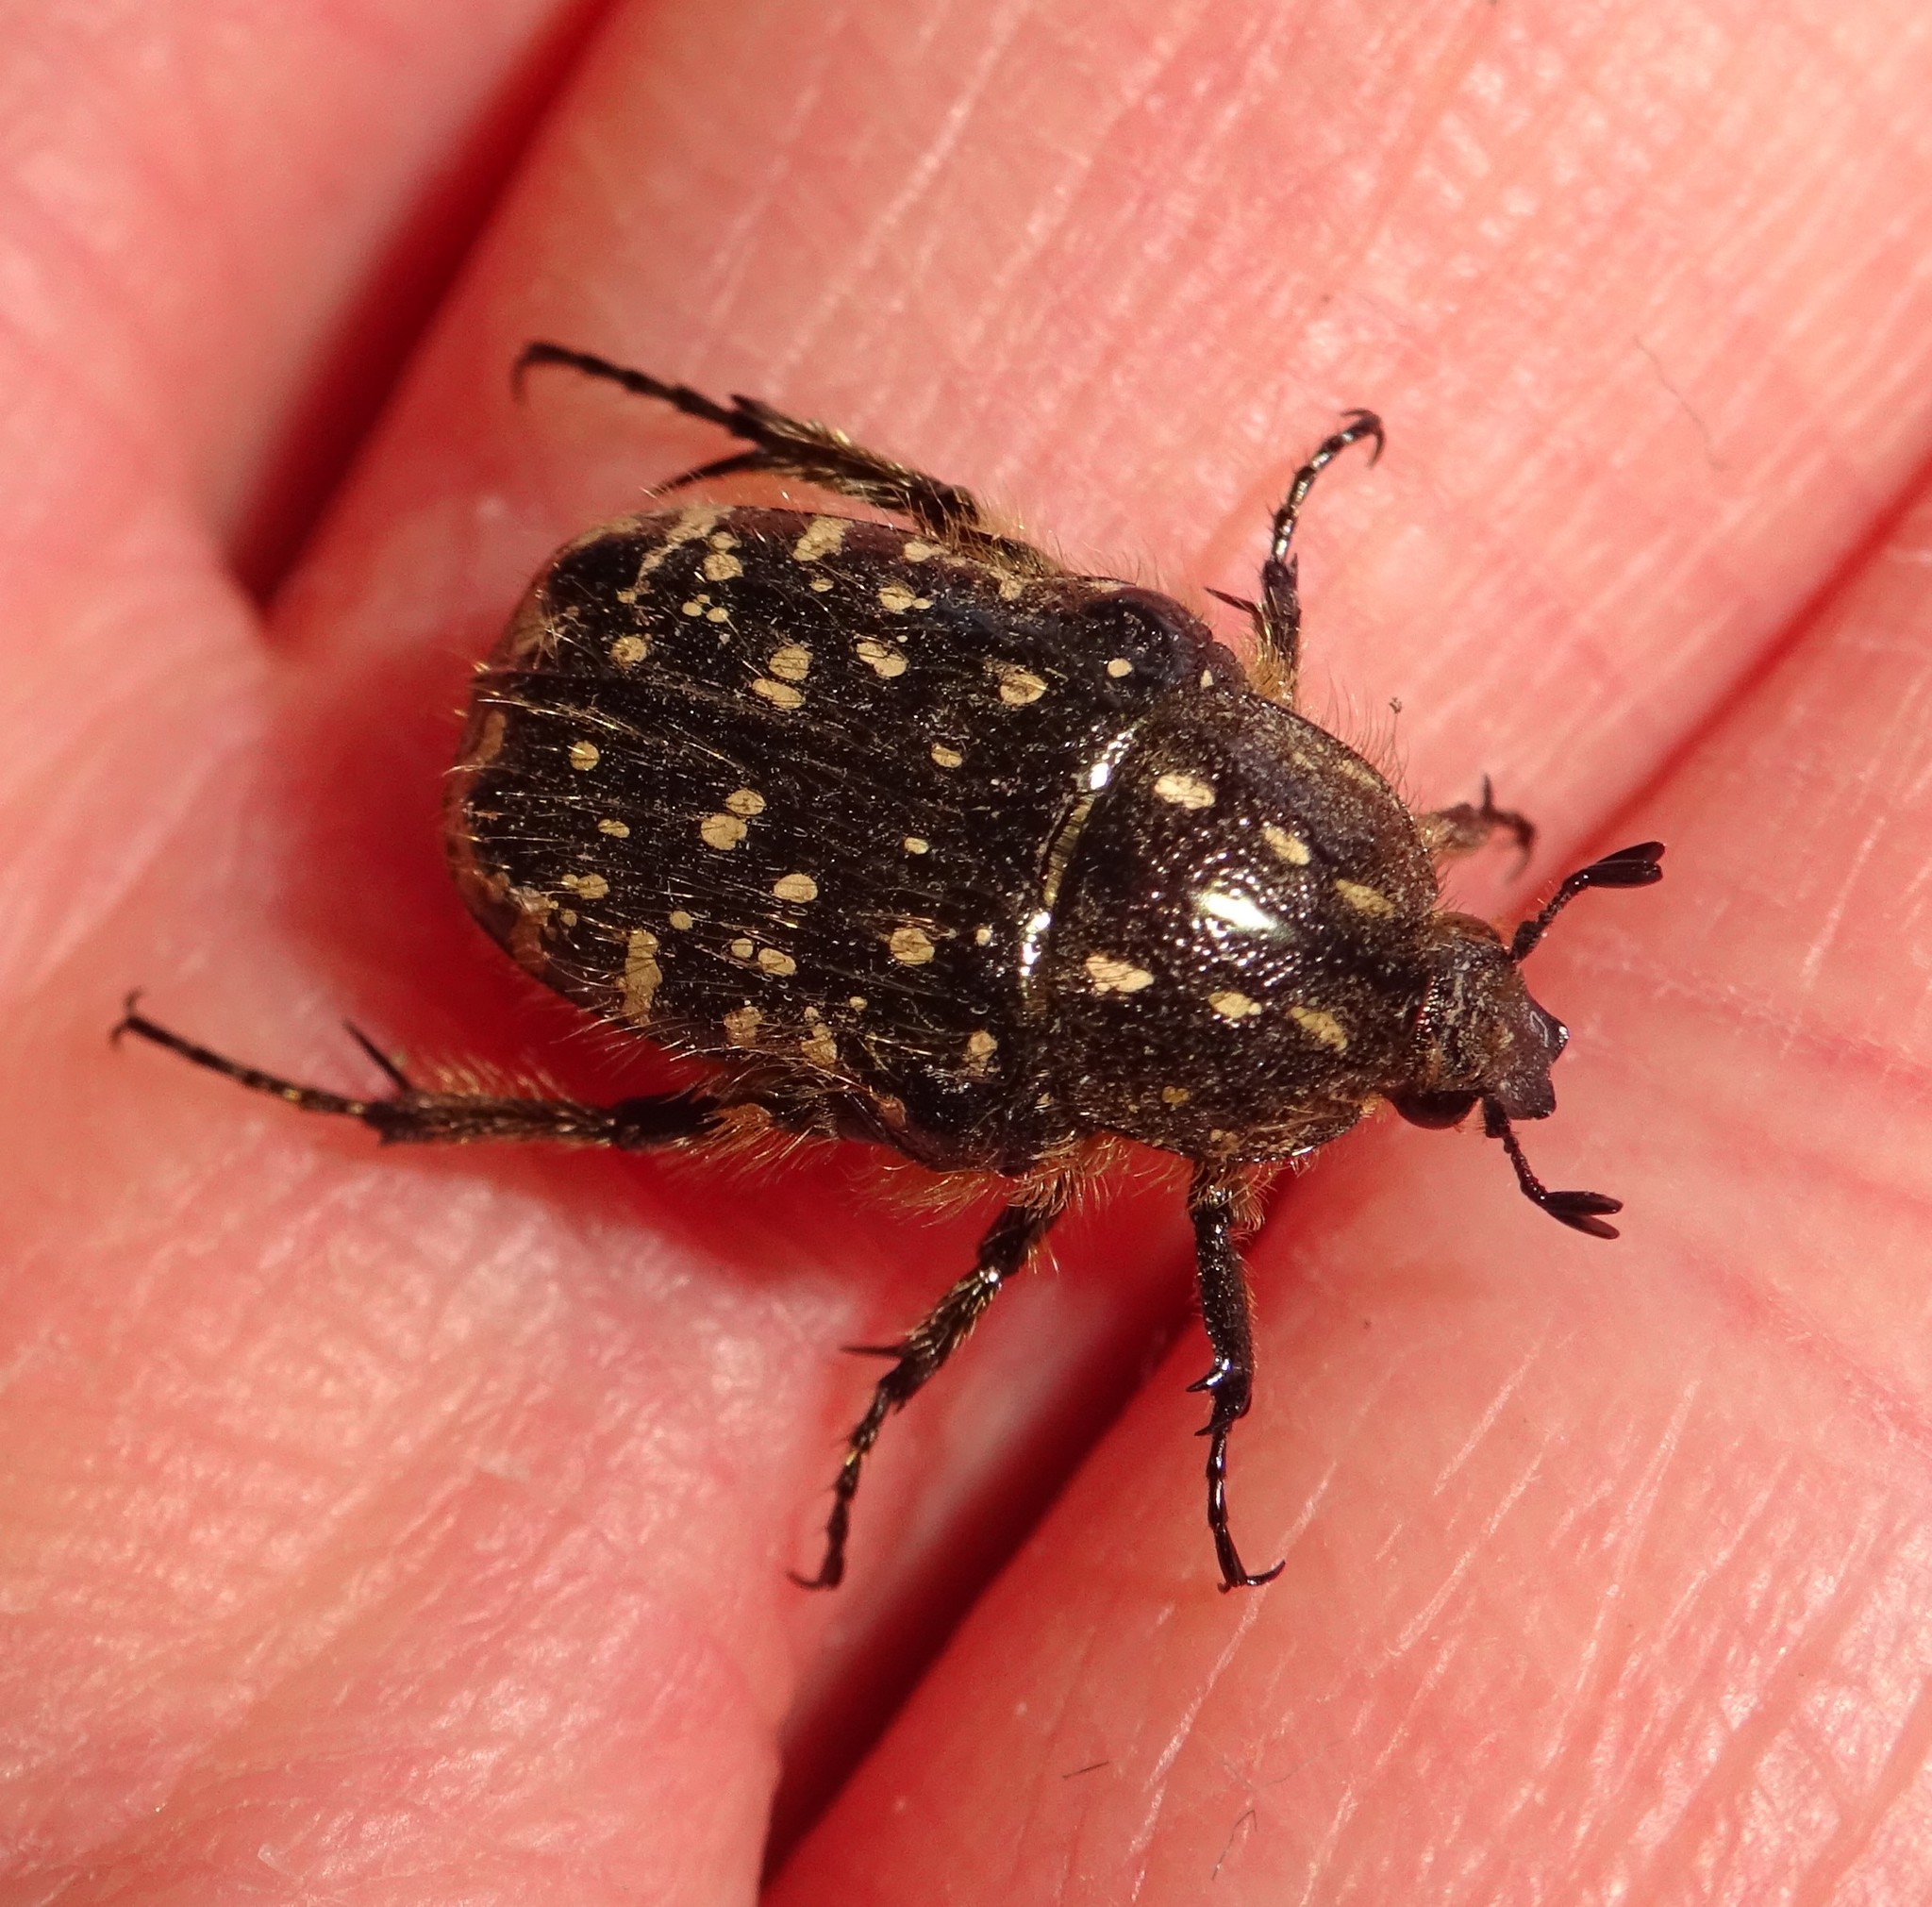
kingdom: Animalia
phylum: Arthropoda
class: Insecta
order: Coleoptera
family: Scarabaeidae
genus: Oxythyrea
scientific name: Oxythyrea funesta
